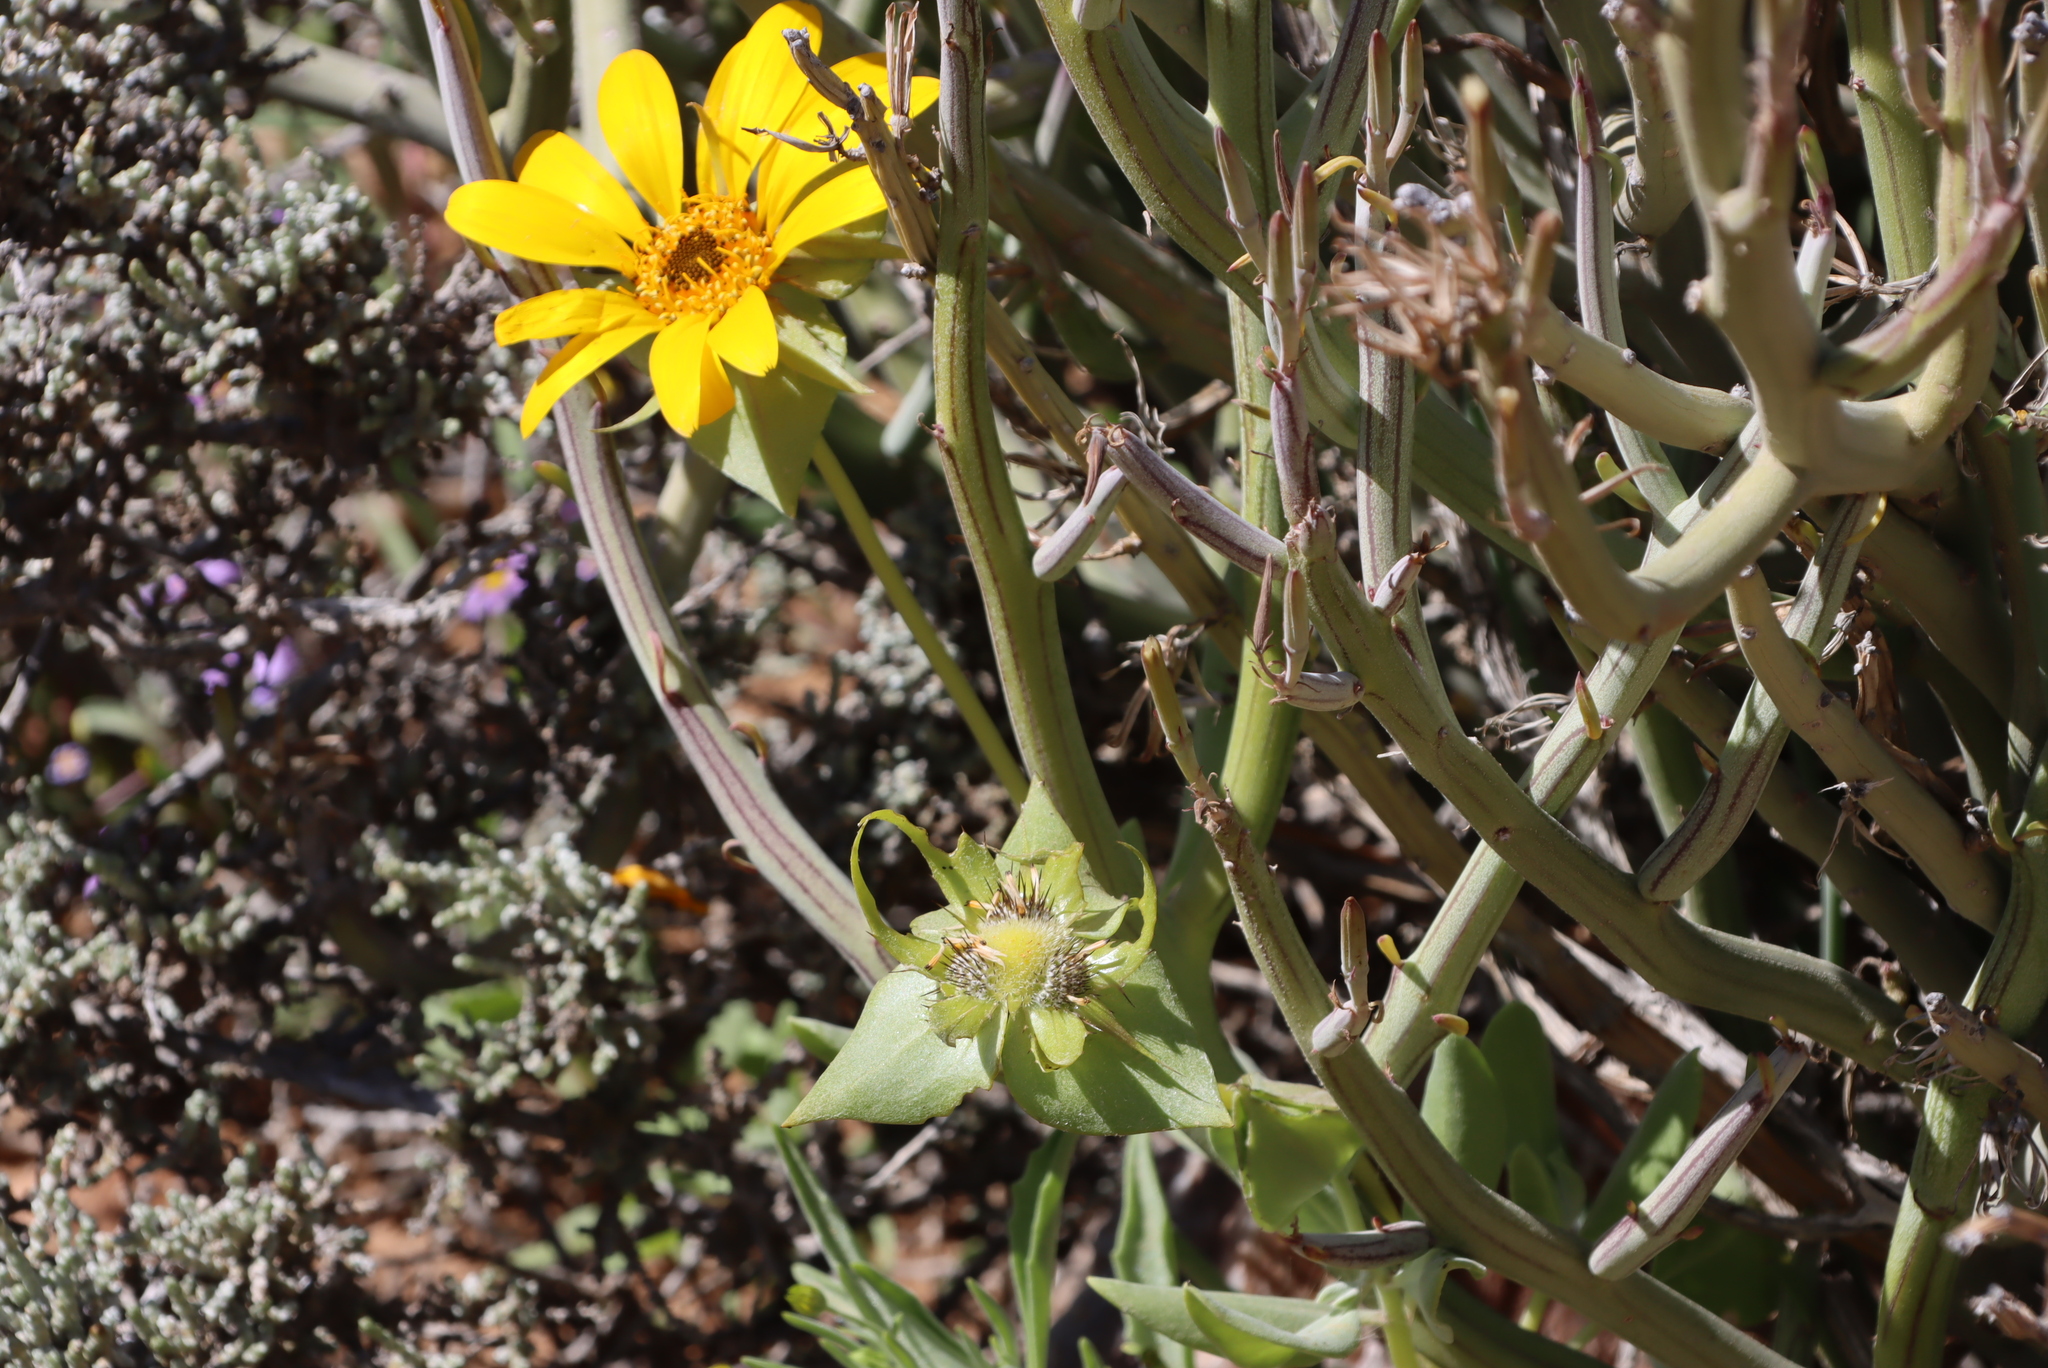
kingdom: Plantae
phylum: Tracheophyta
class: Magnoliopsida
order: Asterales
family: Asteraceae
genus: Didelta
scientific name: Didelta carnosa
